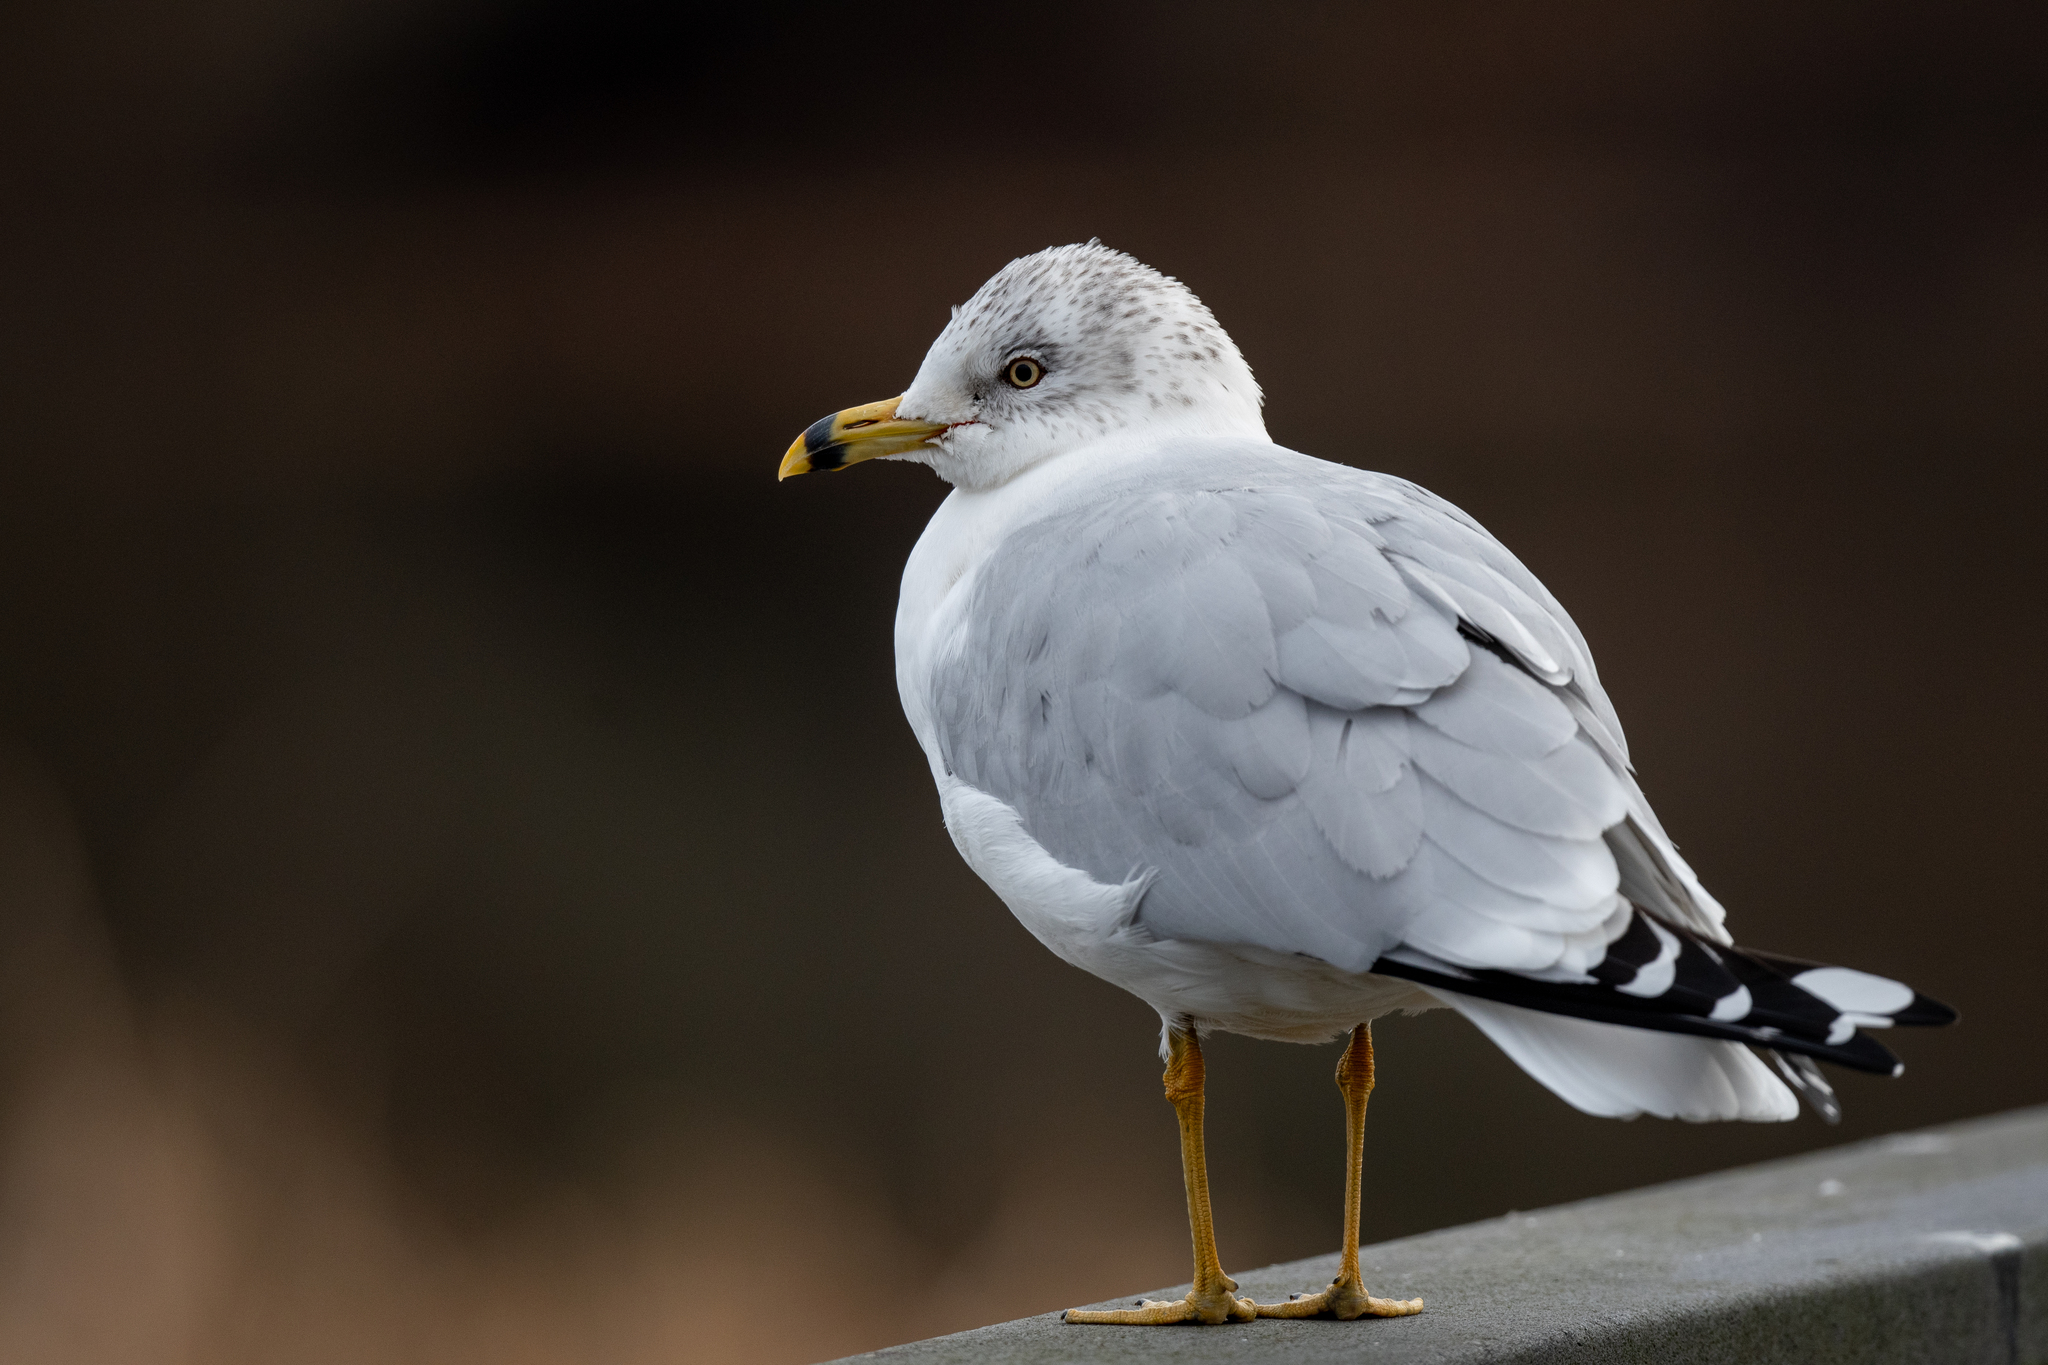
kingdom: Animalia
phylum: Chordata
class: Aves
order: Charadriiformes
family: Laridae
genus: Larus
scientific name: Larus delawarensis
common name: Ring-billed gull
